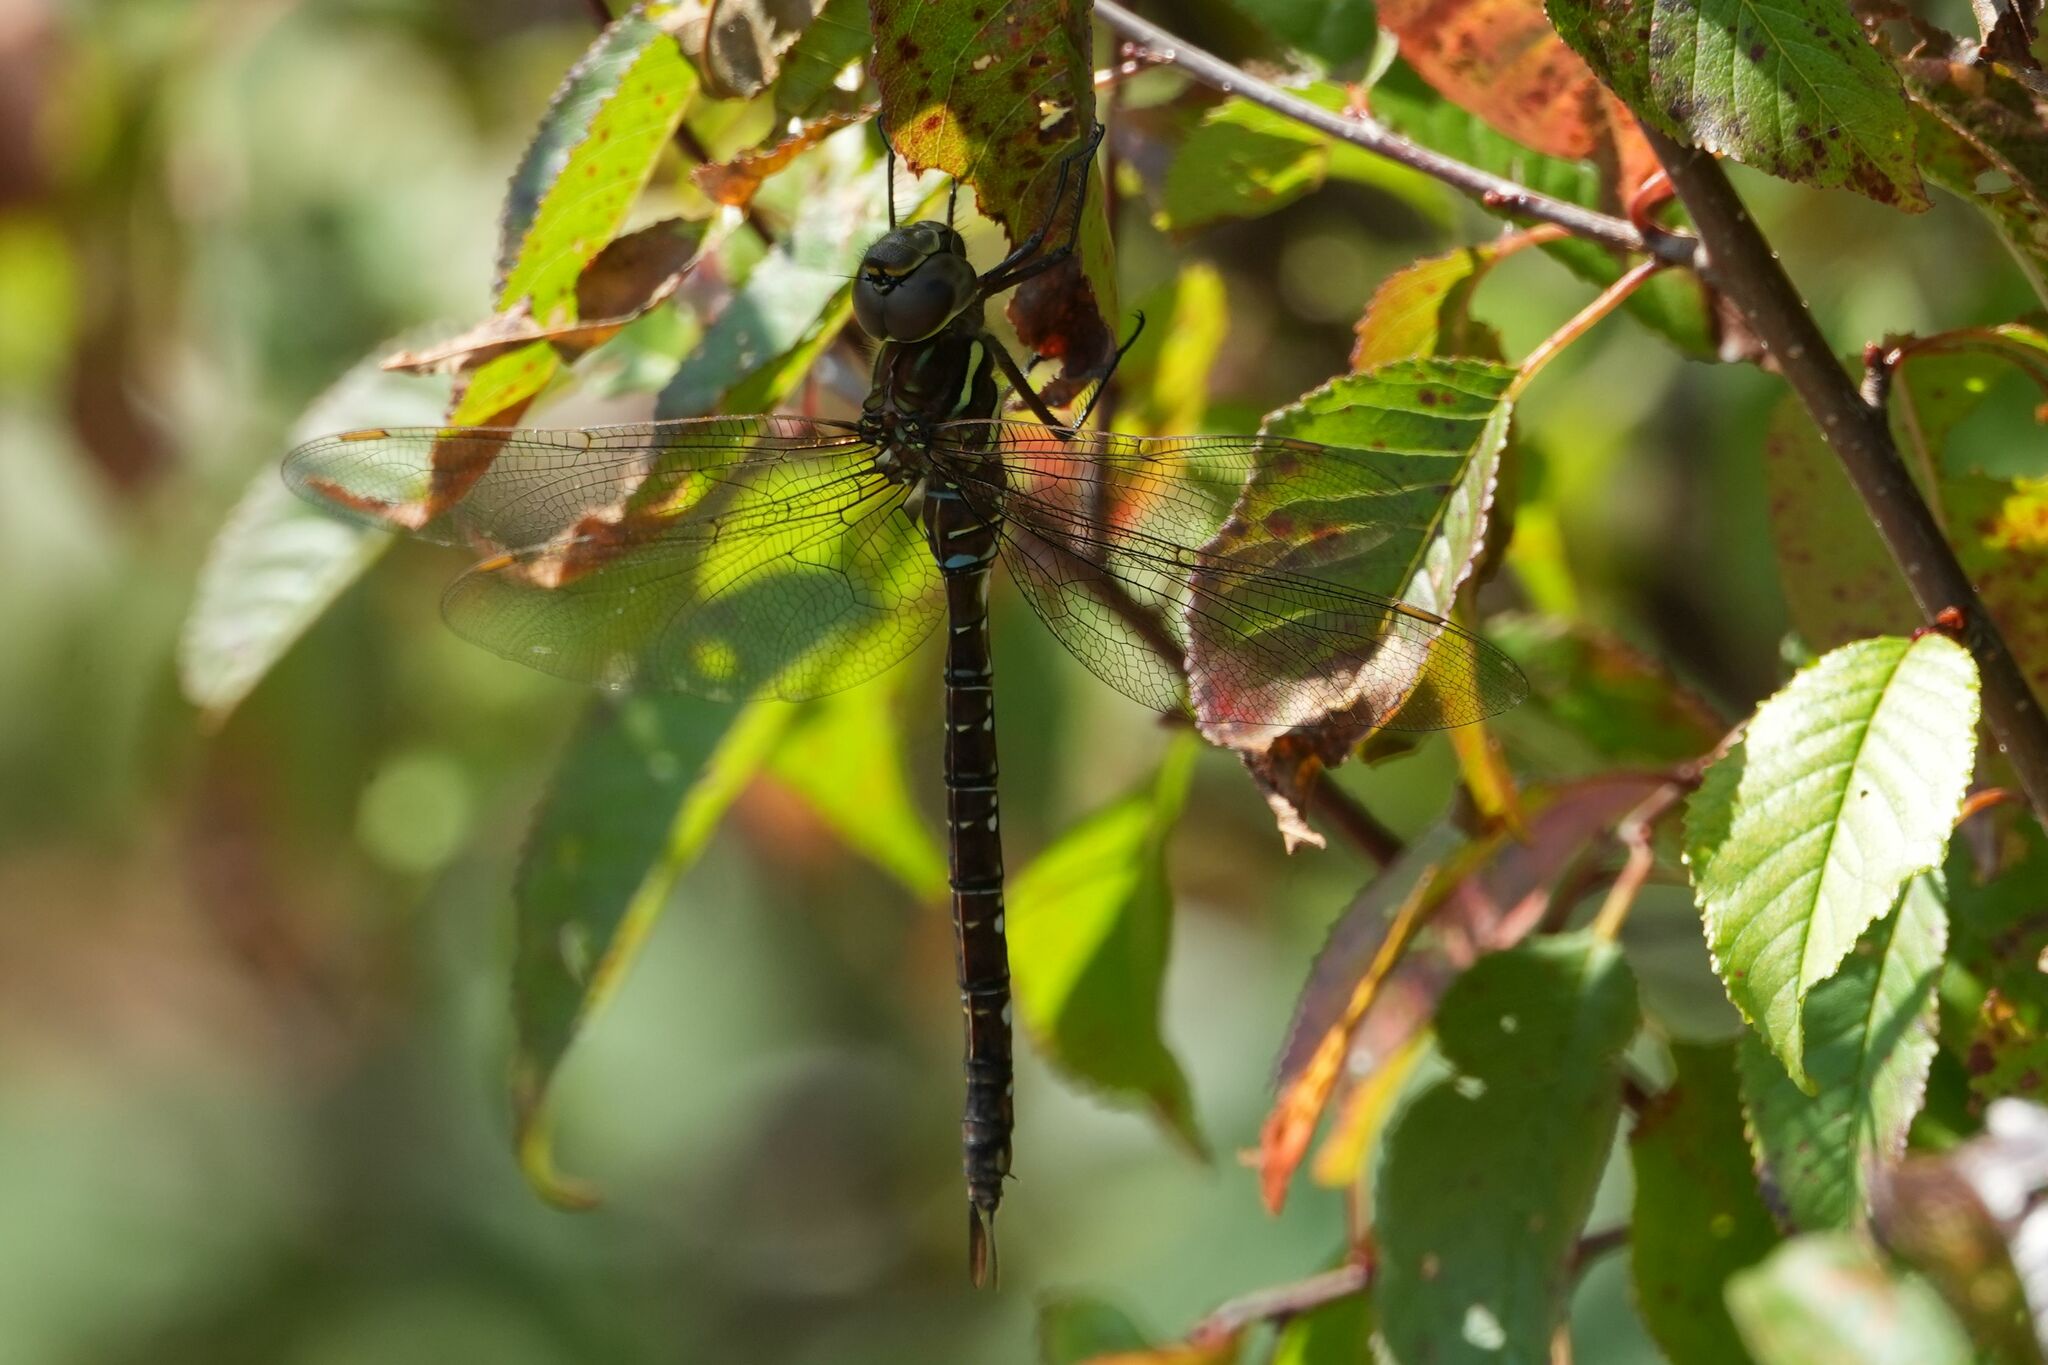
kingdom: Animalia
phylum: Arthropoda
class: Insecta
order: Odonata
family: Aeshnidae
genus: Aeshna
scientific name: Aeshna umbrosa
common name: Shadow darner
